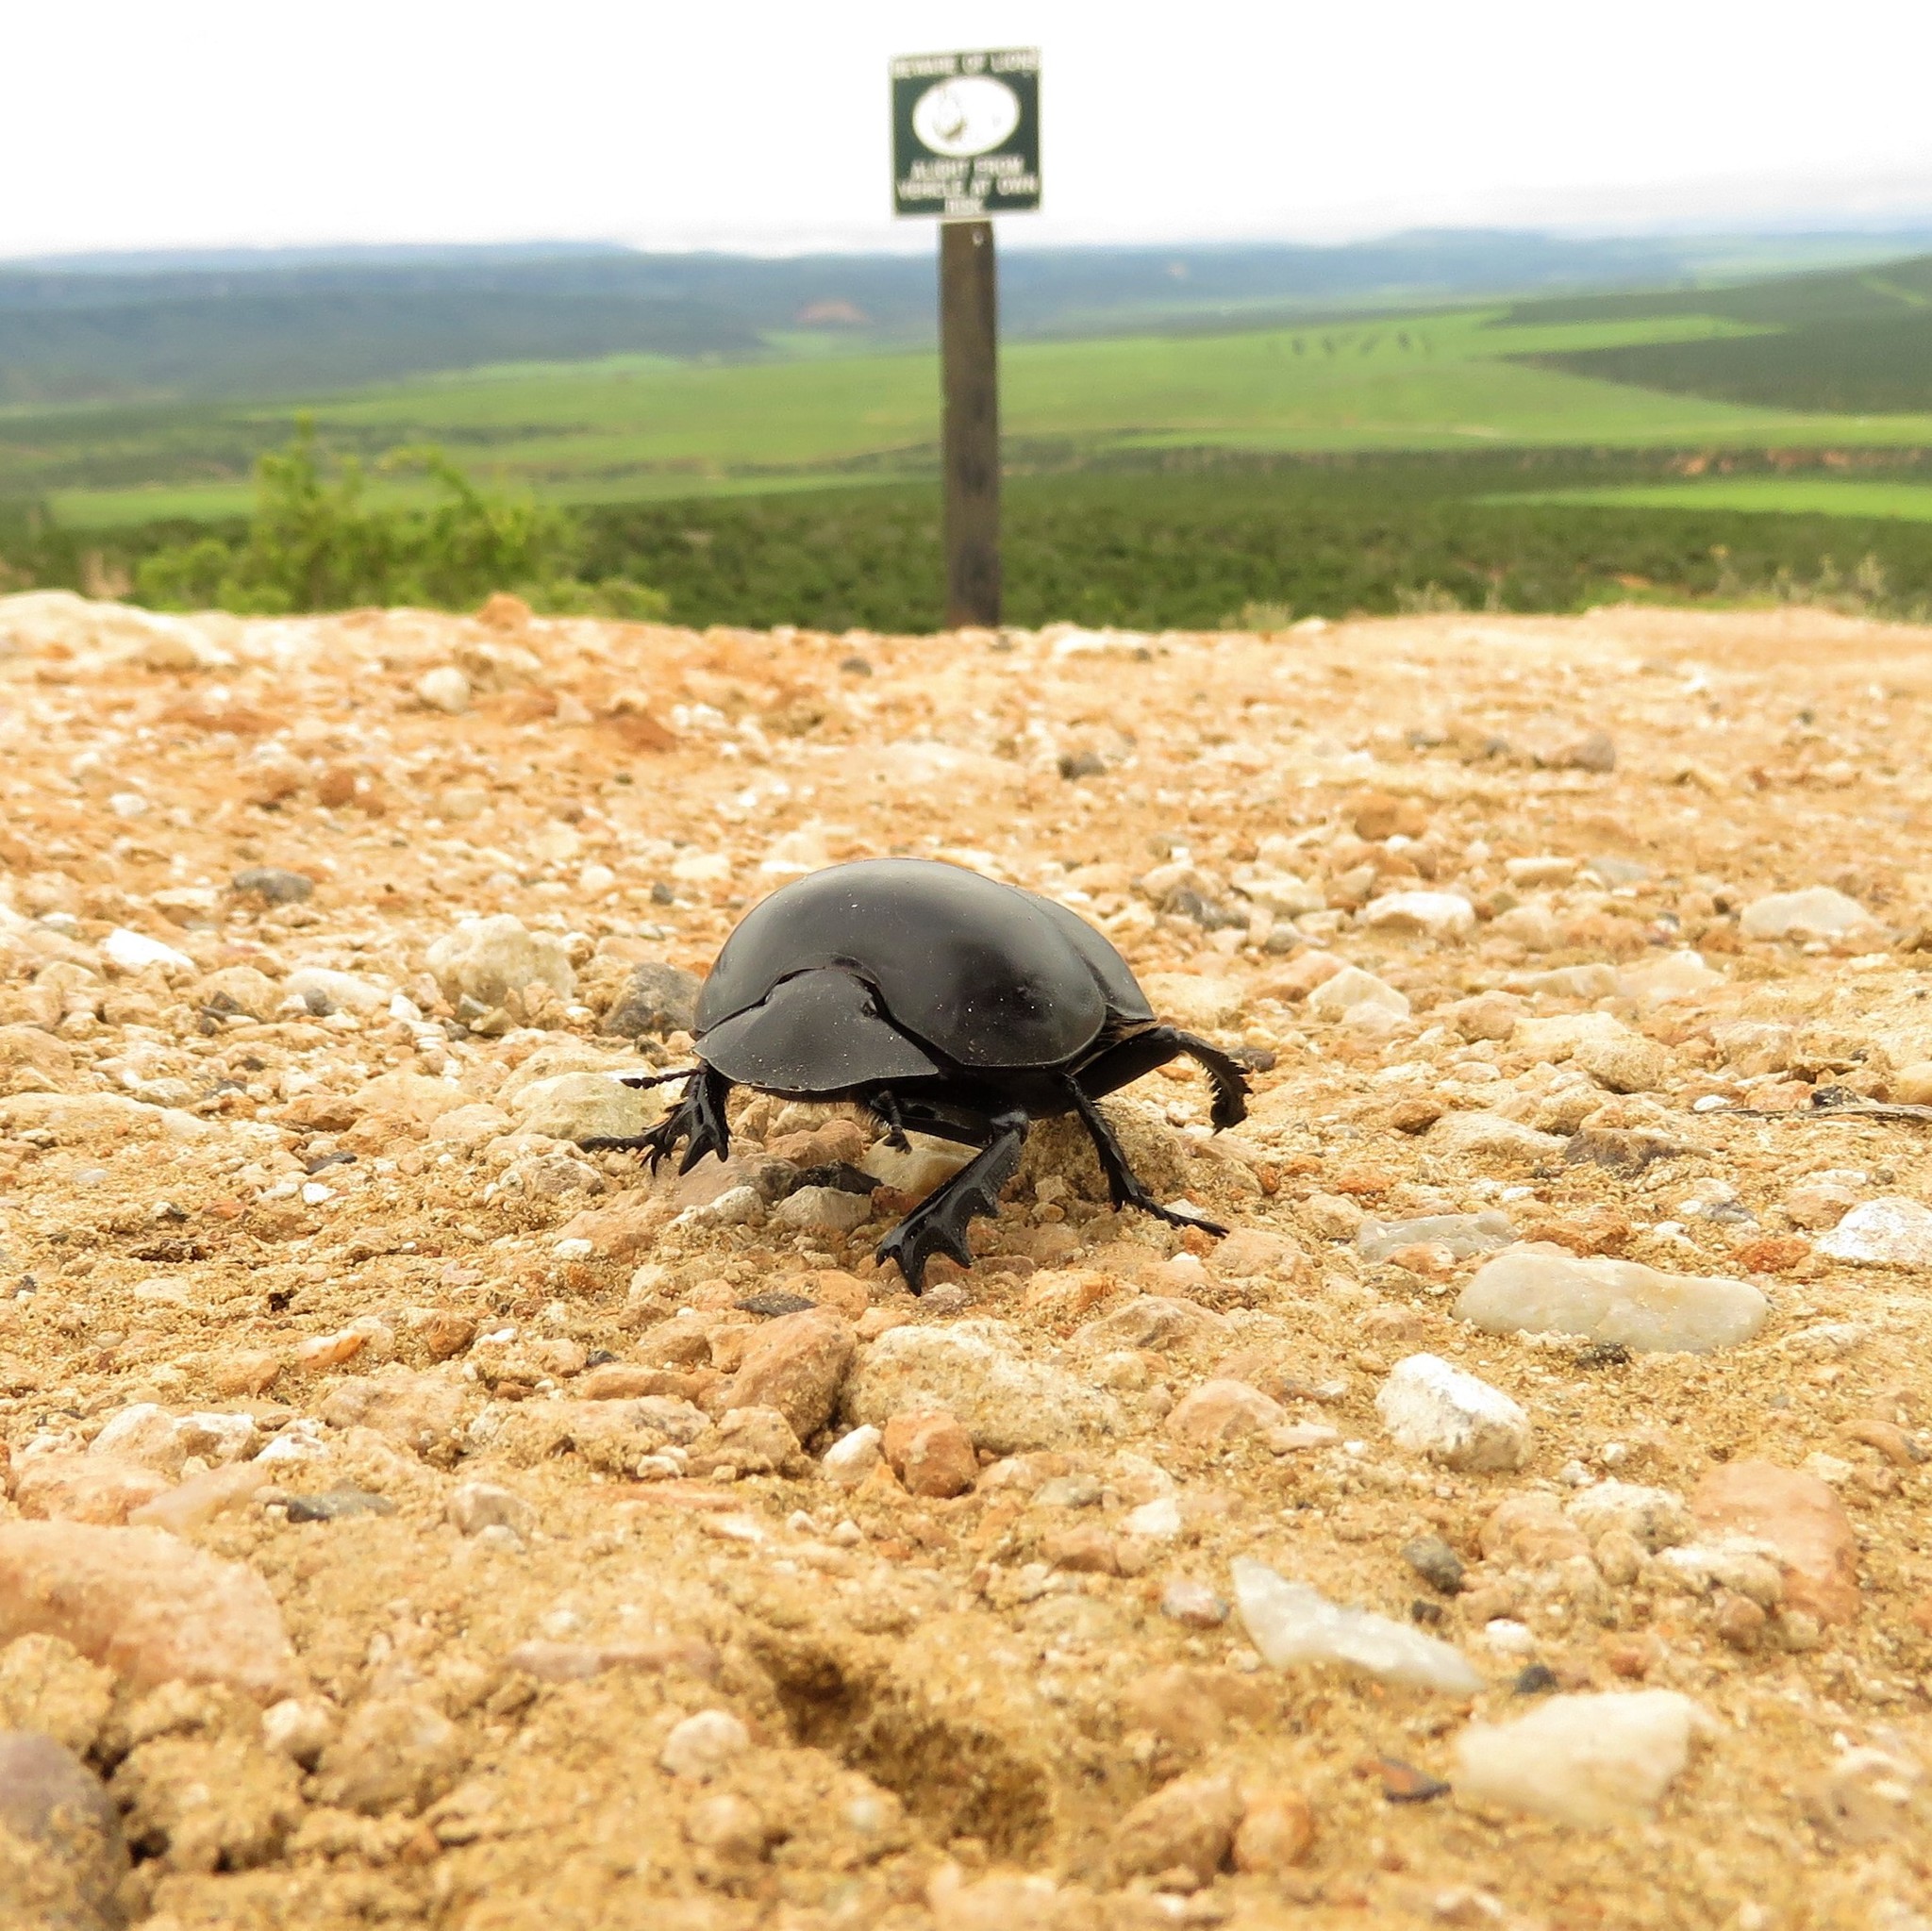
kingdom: Animalia
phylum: Arthropoda
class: Insecta
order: Coleoptera
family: Scarabaeidae
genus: Circellium
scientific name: Circellium bacchus
